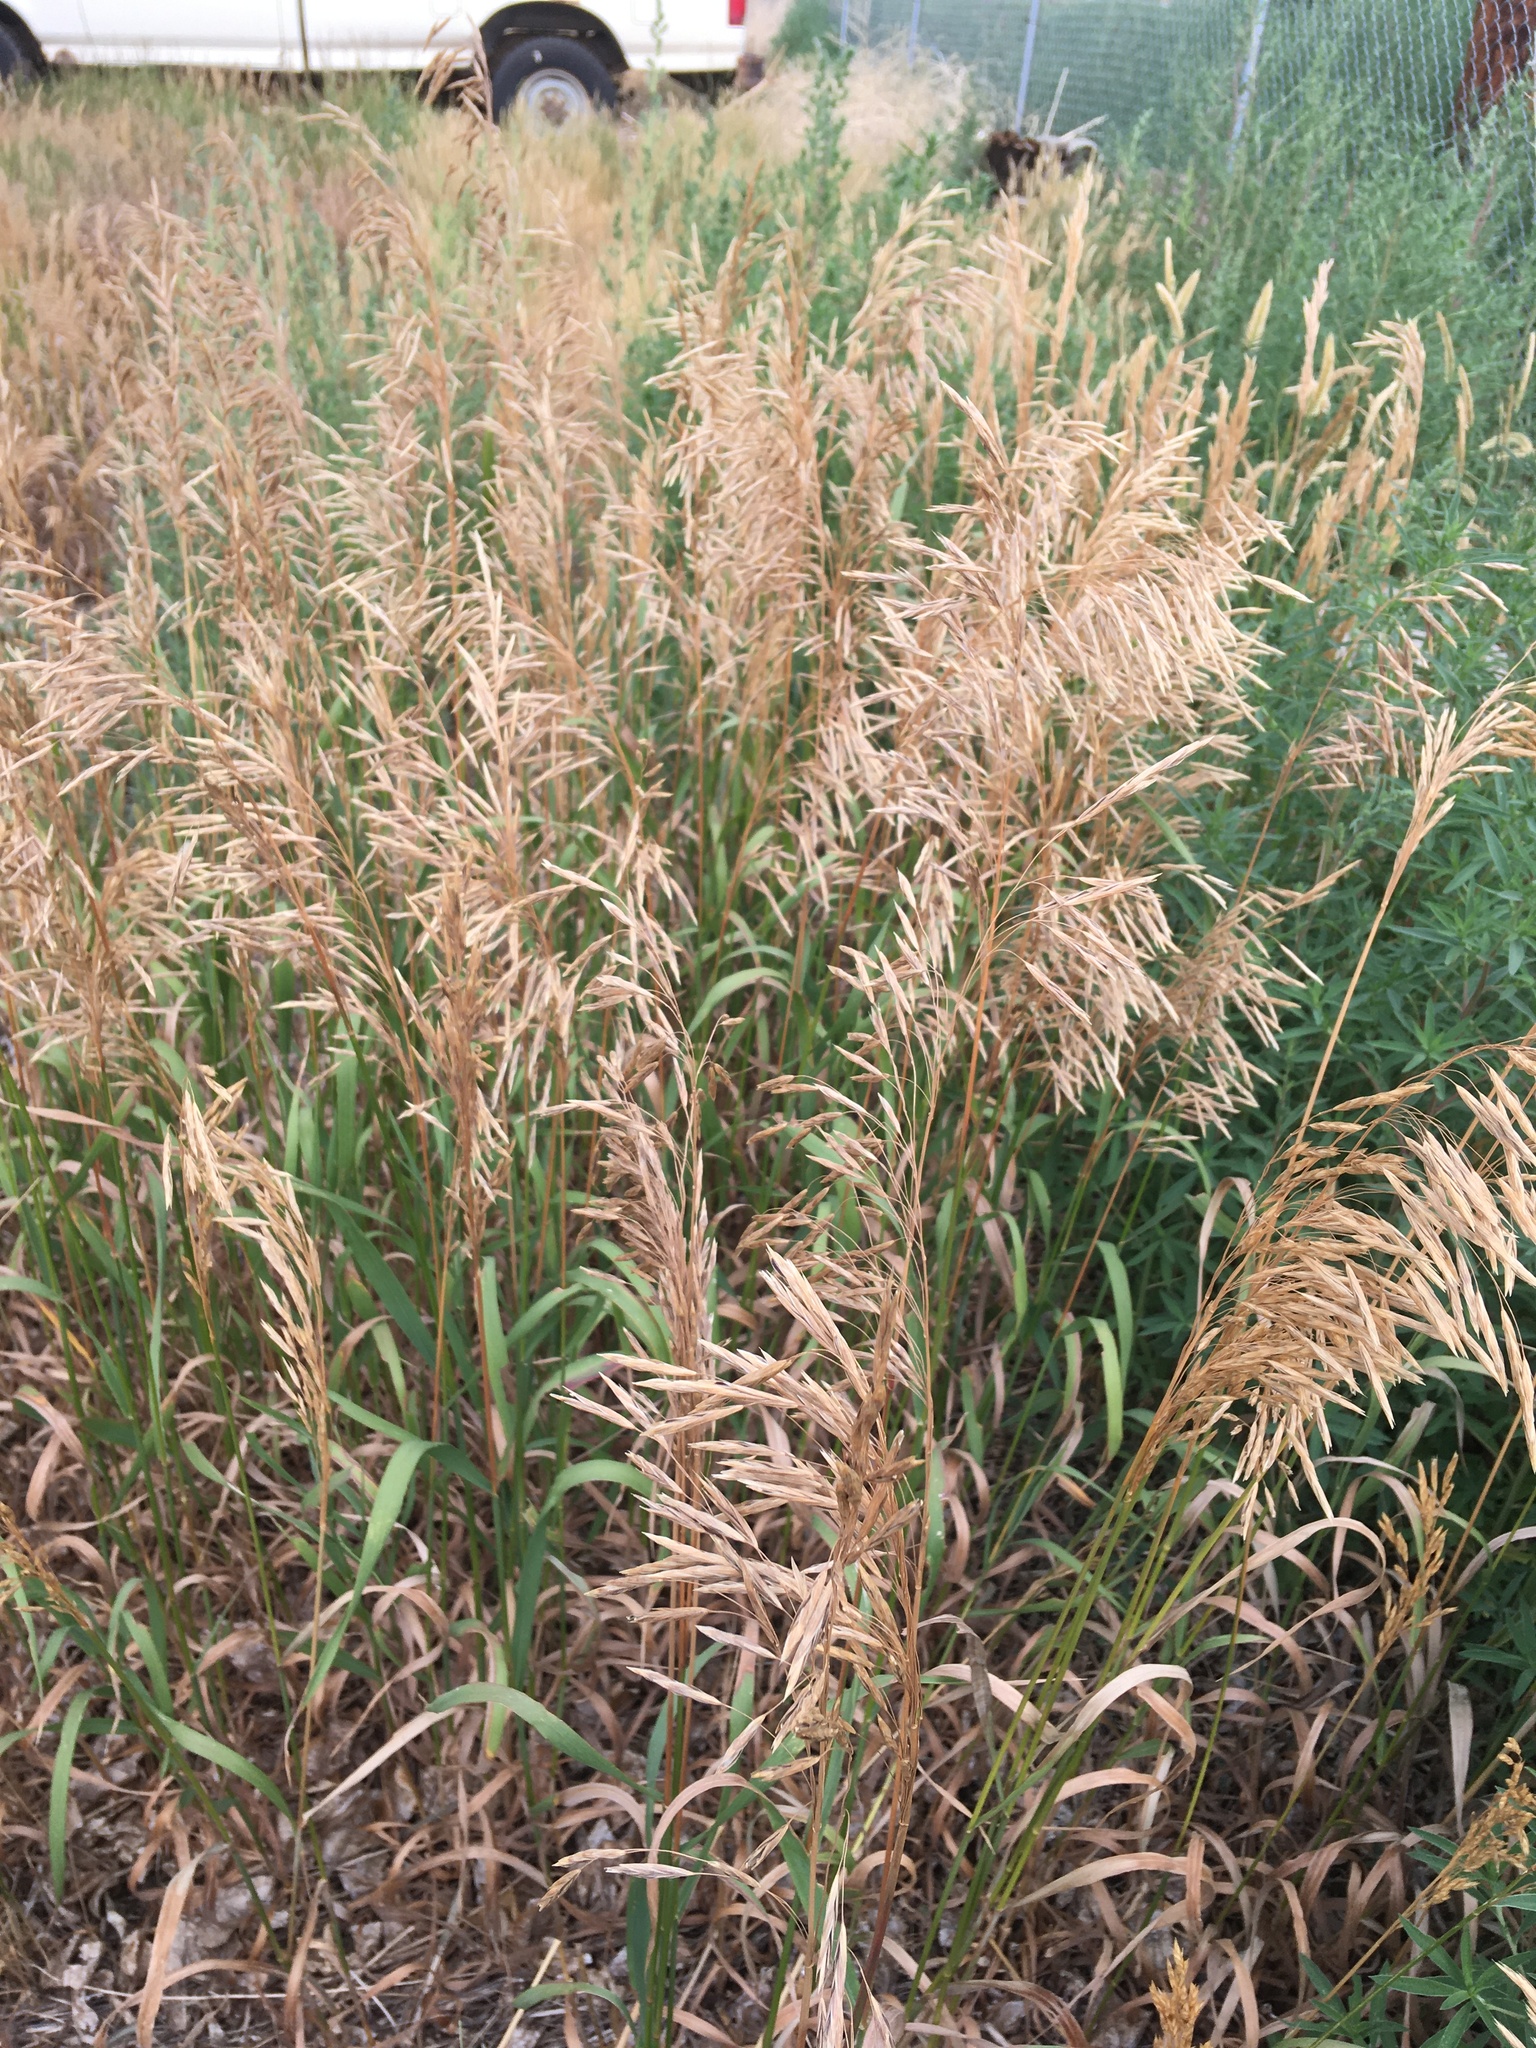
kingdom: Plantae
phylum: Tracheophyta
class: Liliopsida
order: Poales
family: Poaceae
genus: Bromus
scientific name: Bromus inermis
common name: Smooth brome
